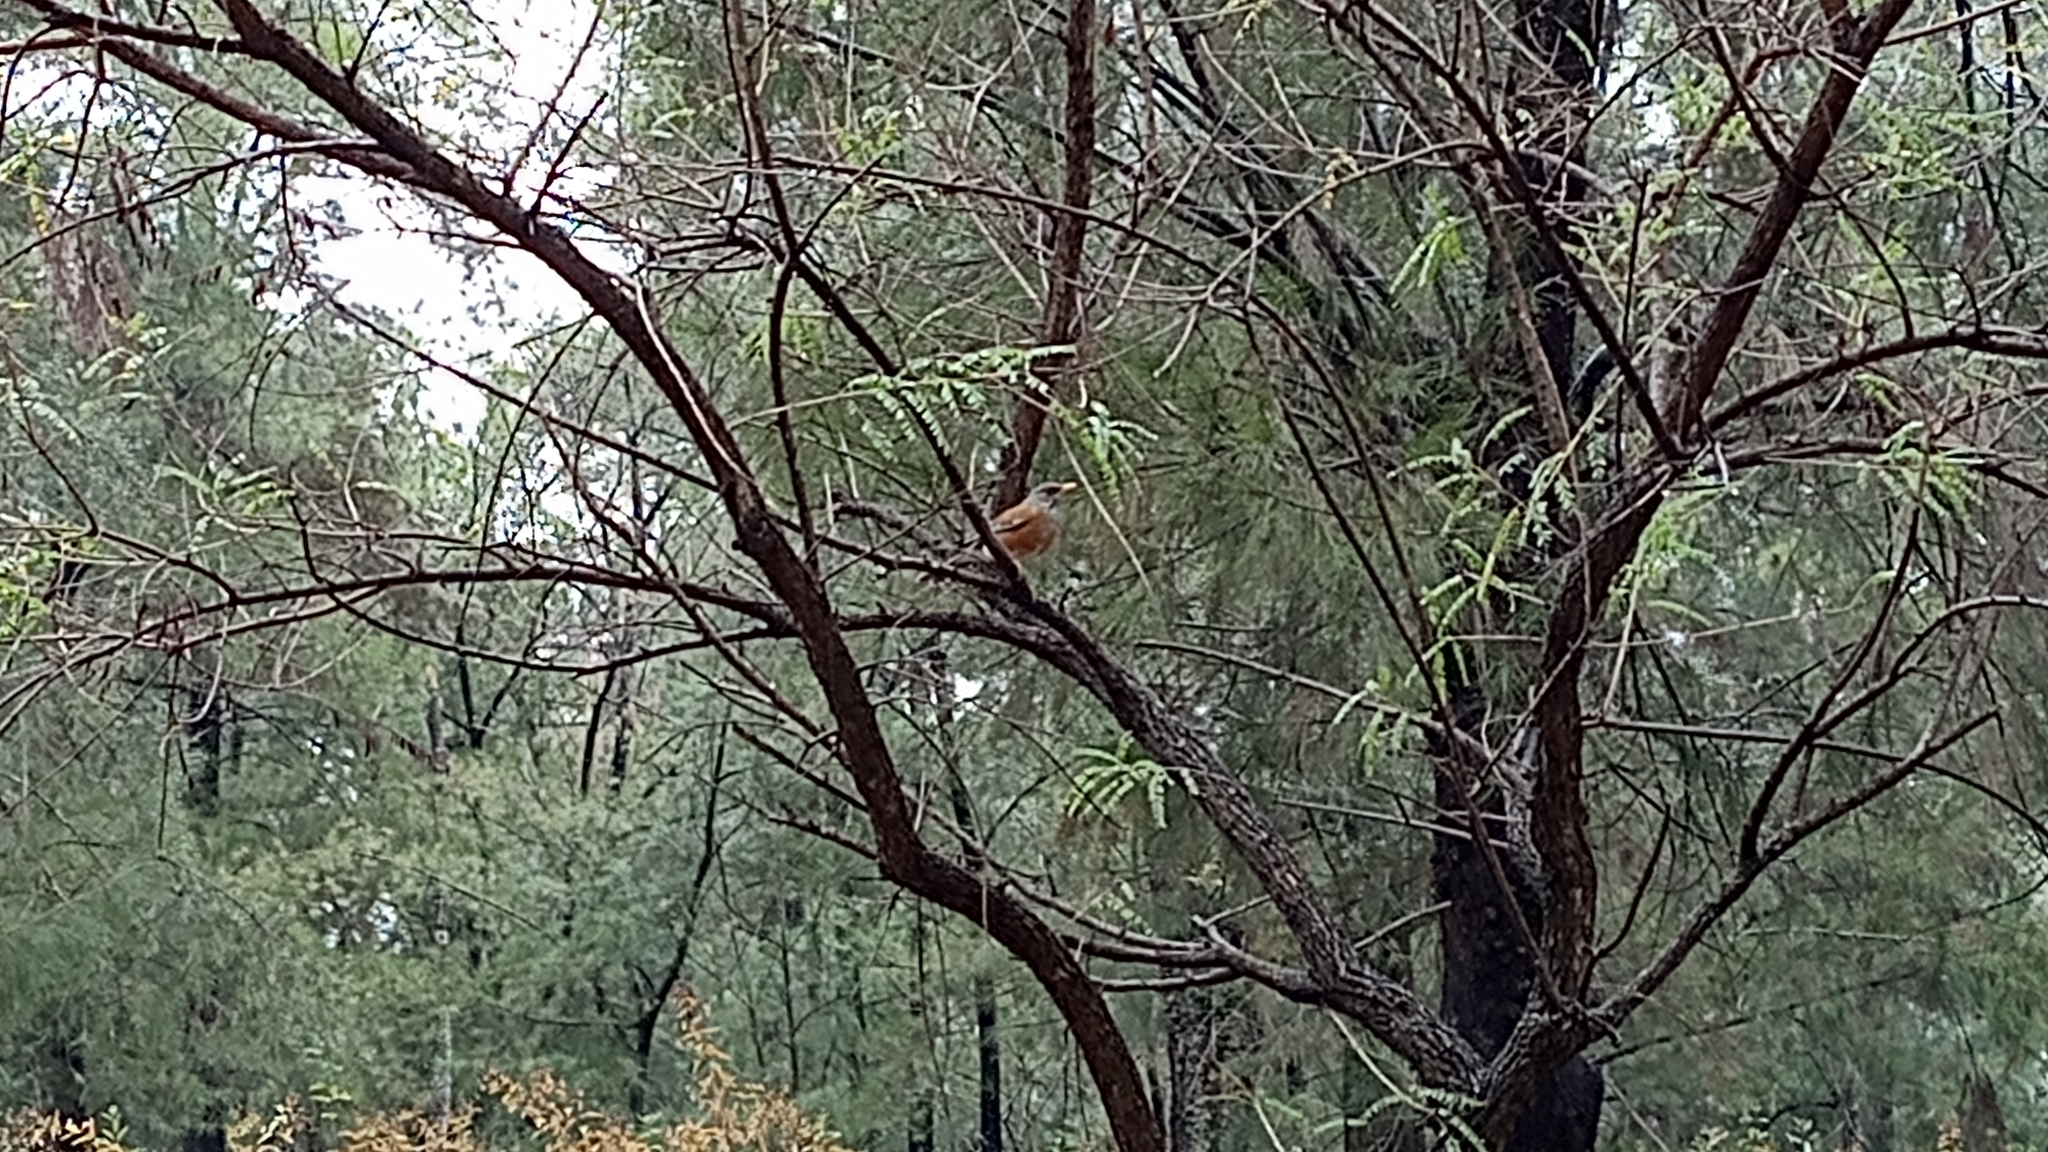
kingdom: Animalia
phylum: Chordata
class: Aves
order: Passeriformes
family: Turdidae
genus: Turdus
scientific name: Turdus rufopalliatus
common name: Rufous-backed robin
